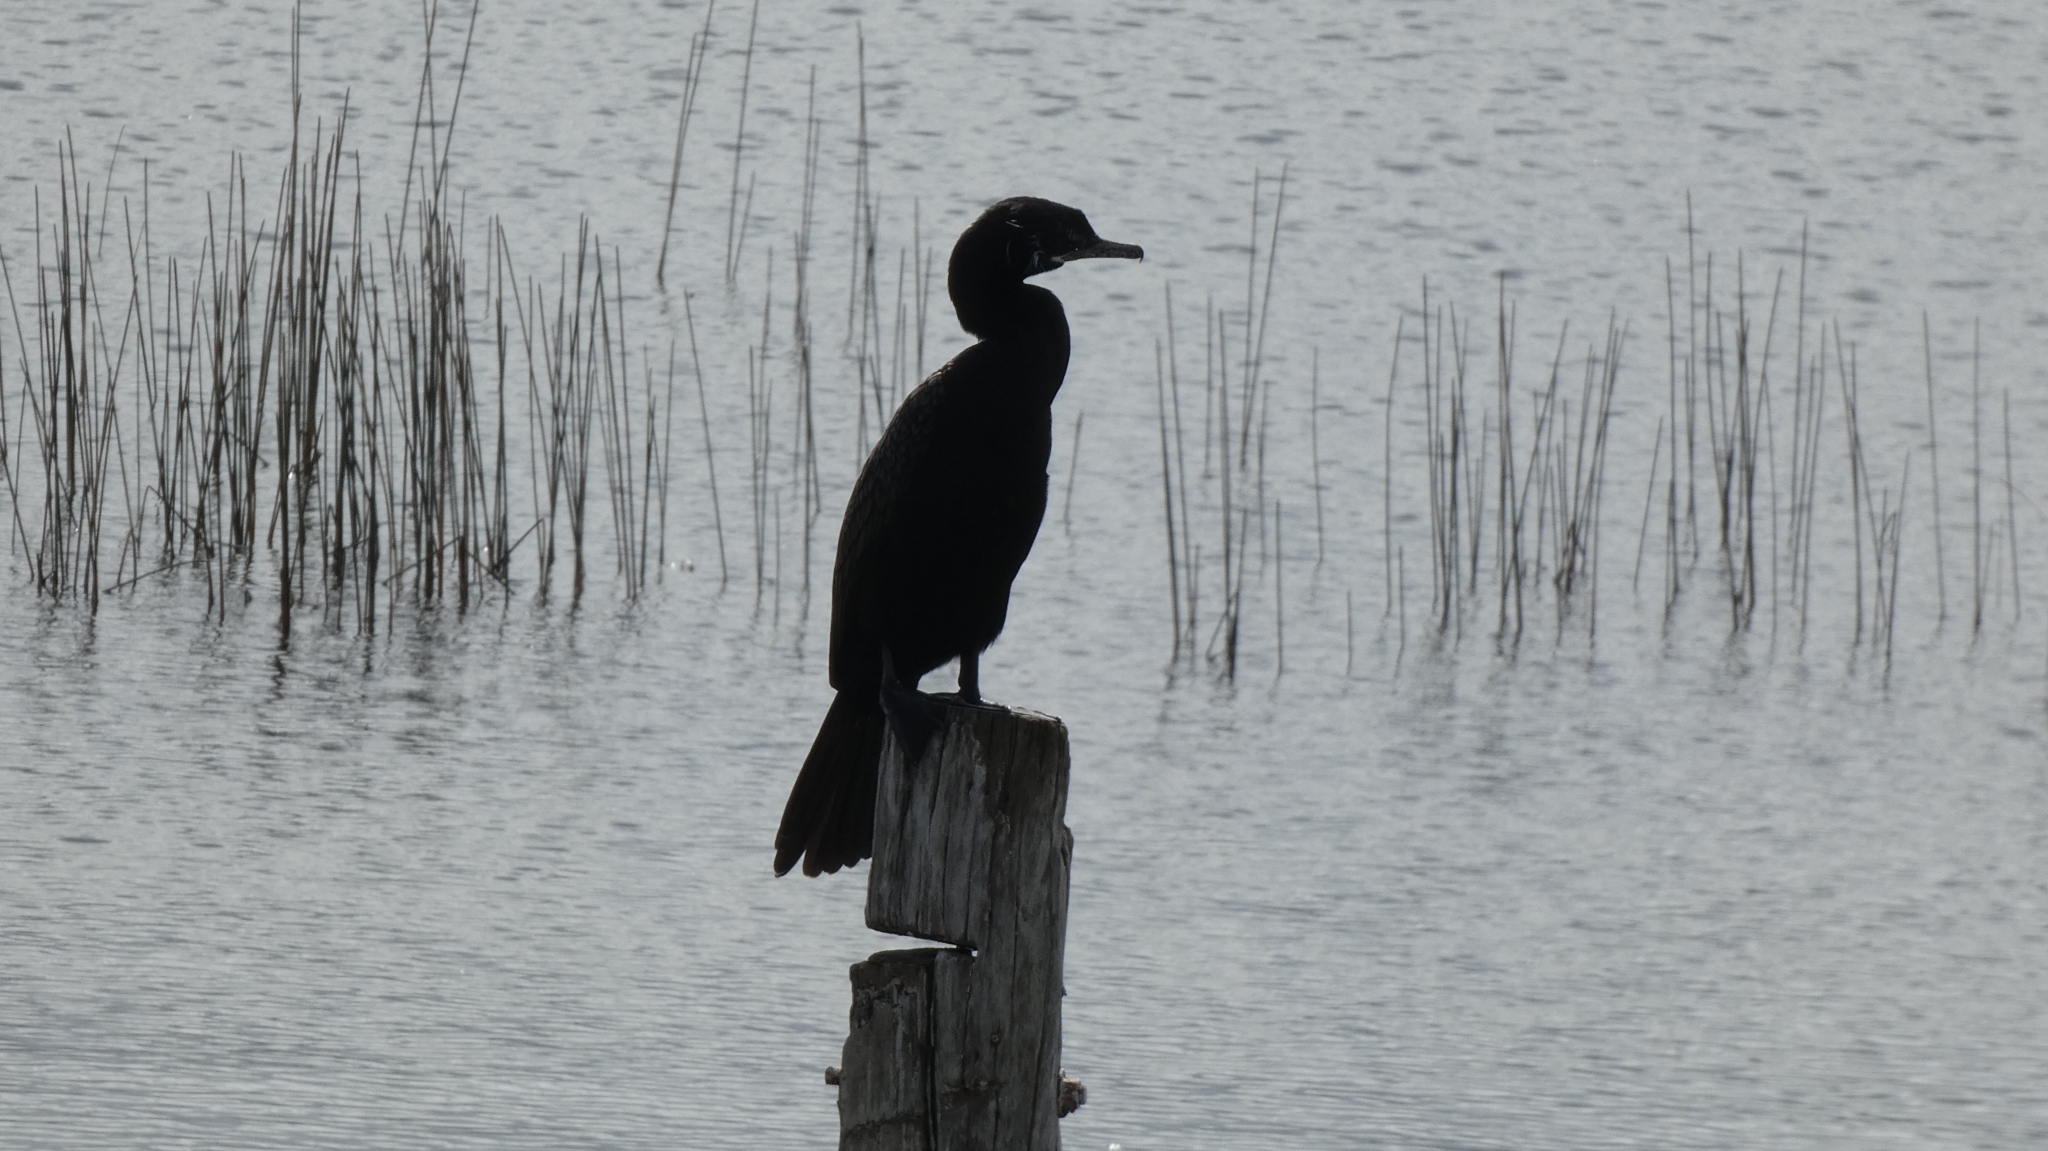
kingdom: Animalia
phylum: Chordata
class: Aves
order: Suliformes
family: Phalacrocoracidae
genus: Phalacrocorax
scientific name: Phalacrocorax brasilianus
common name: Neotropic cormorant
